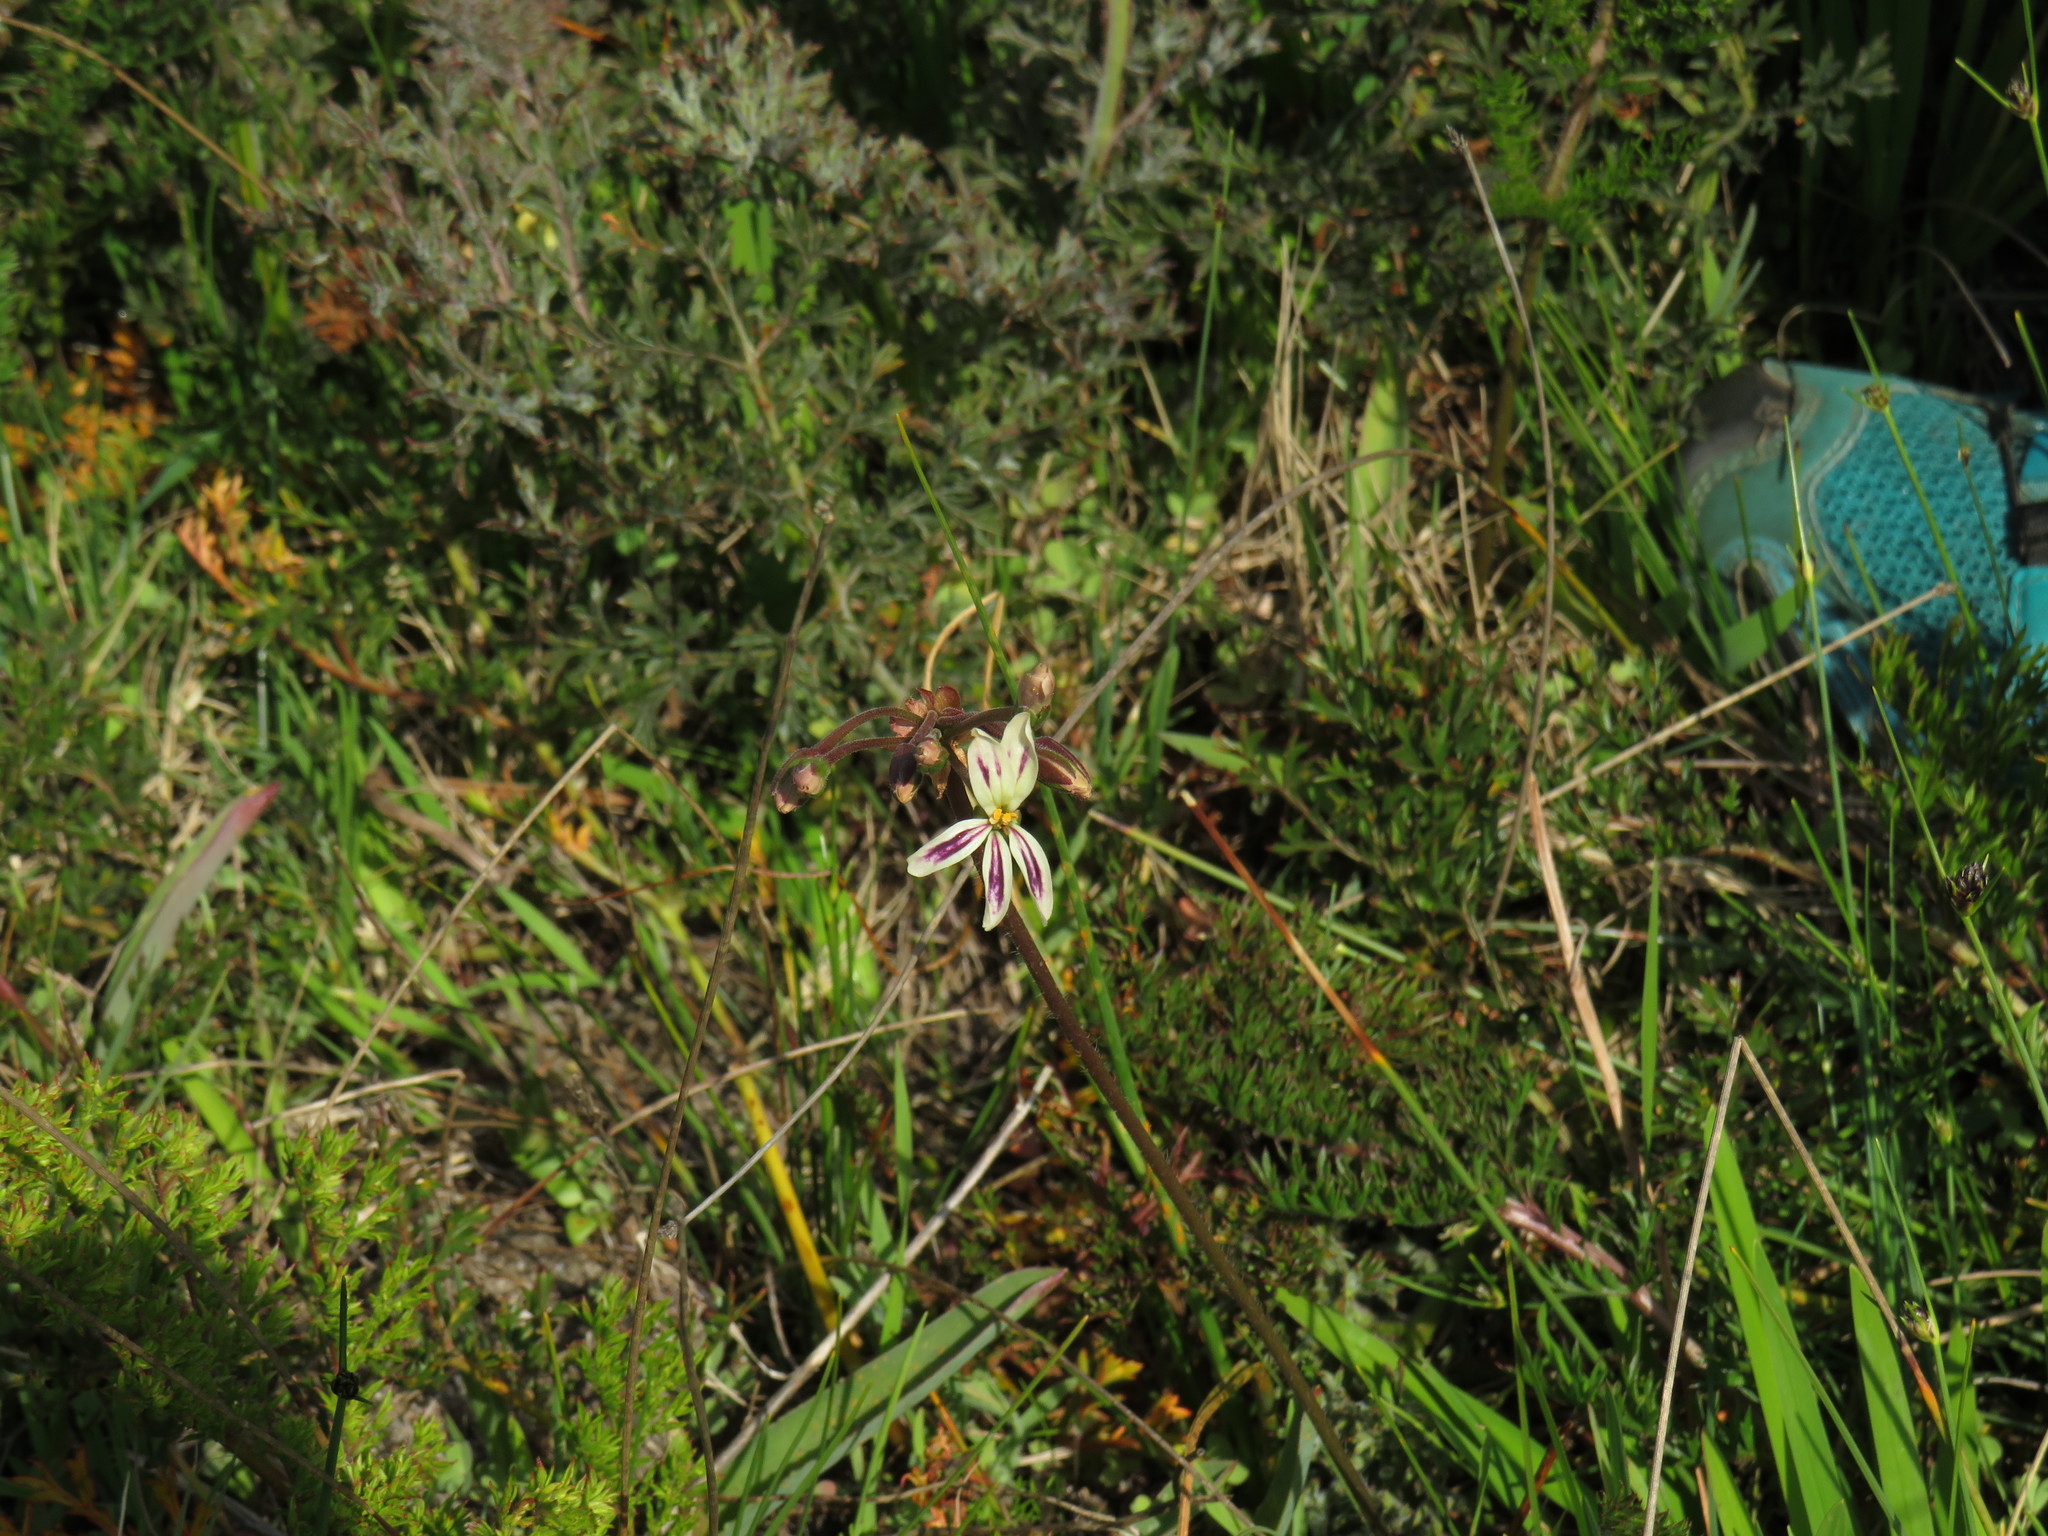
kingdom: Plantae
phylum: Tracheophyta
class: Magnoliopsida
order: Geraniales
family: Geraniaceae
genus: Pelargonium
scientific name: Pelargonium triste
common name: Night-scent pelargonium
